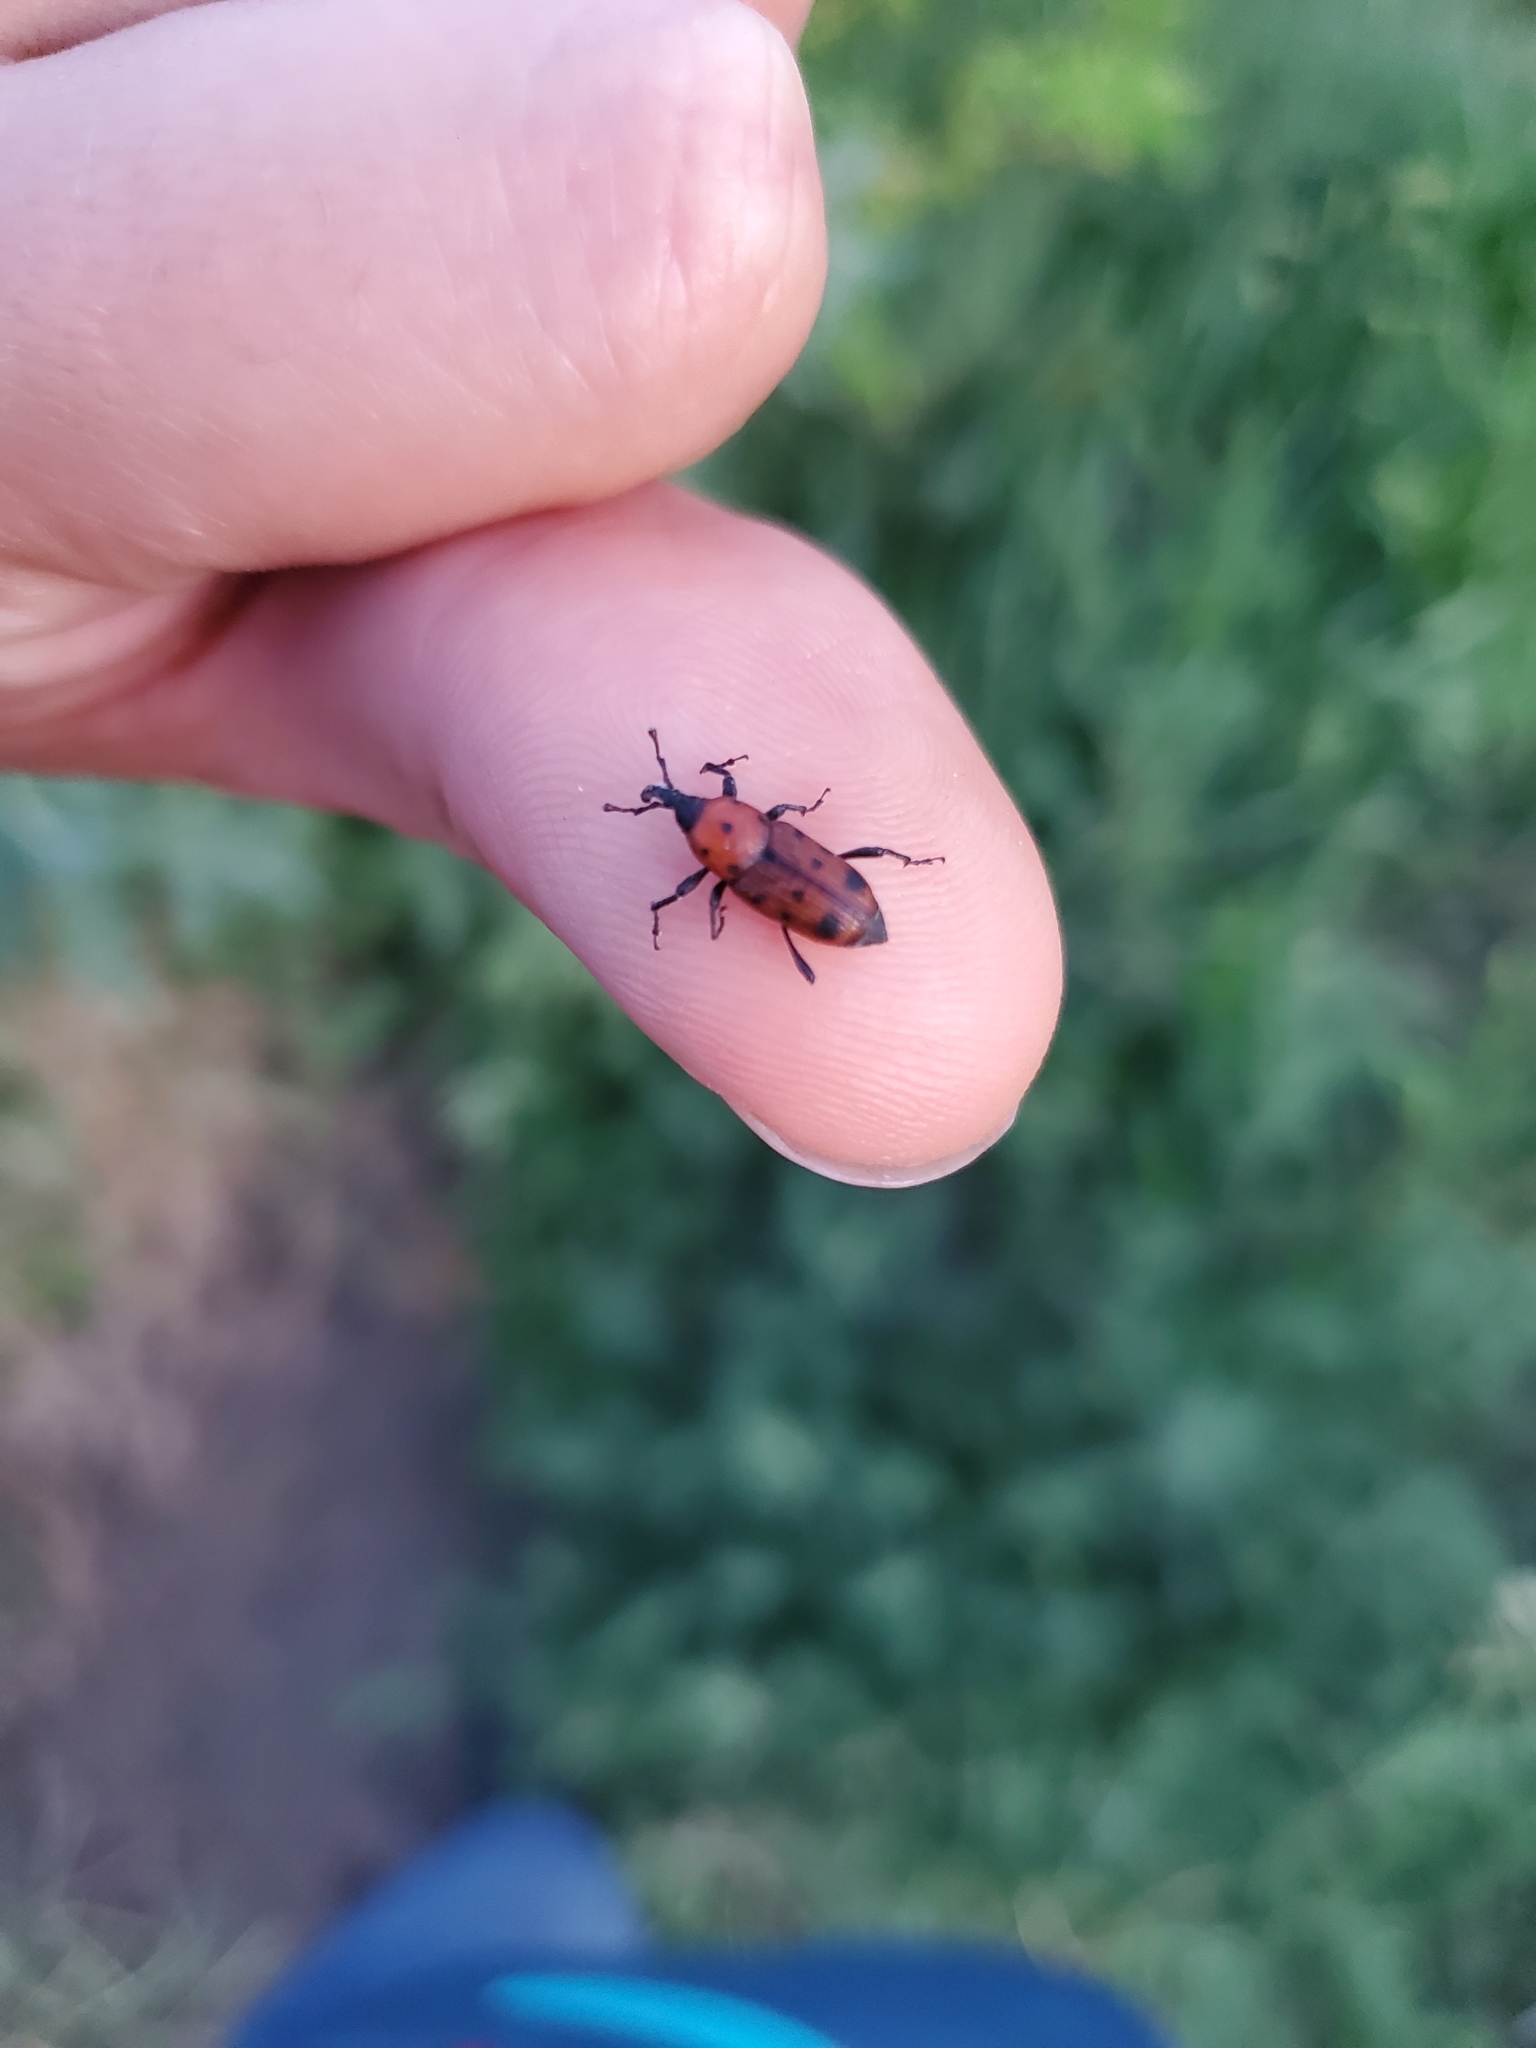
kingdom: Animalia
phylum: Arthropoda
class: Insecta
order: Coleoptera
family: Dryophthoridae
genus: Rhodobaenus
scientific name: Rhodobaenus tredecimpunctatus
